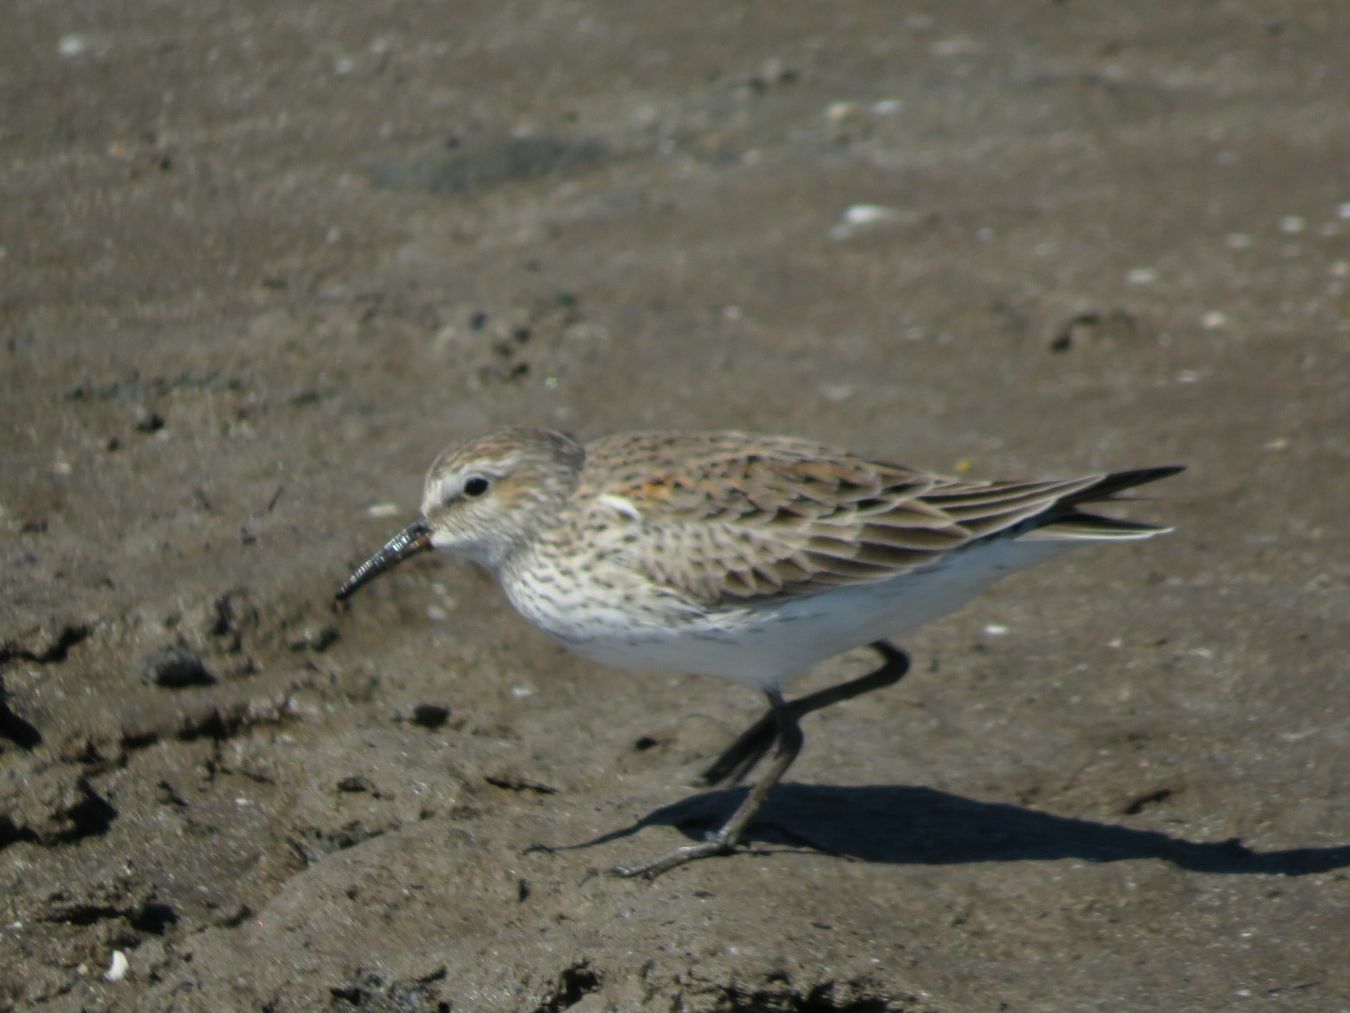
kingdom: Animalia
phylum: Chordata
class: Aves
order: Charadriiformes
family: Scolopacidae
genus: Calidris
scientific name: Calidris fuscicollis
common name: White-rumped sandpiper
